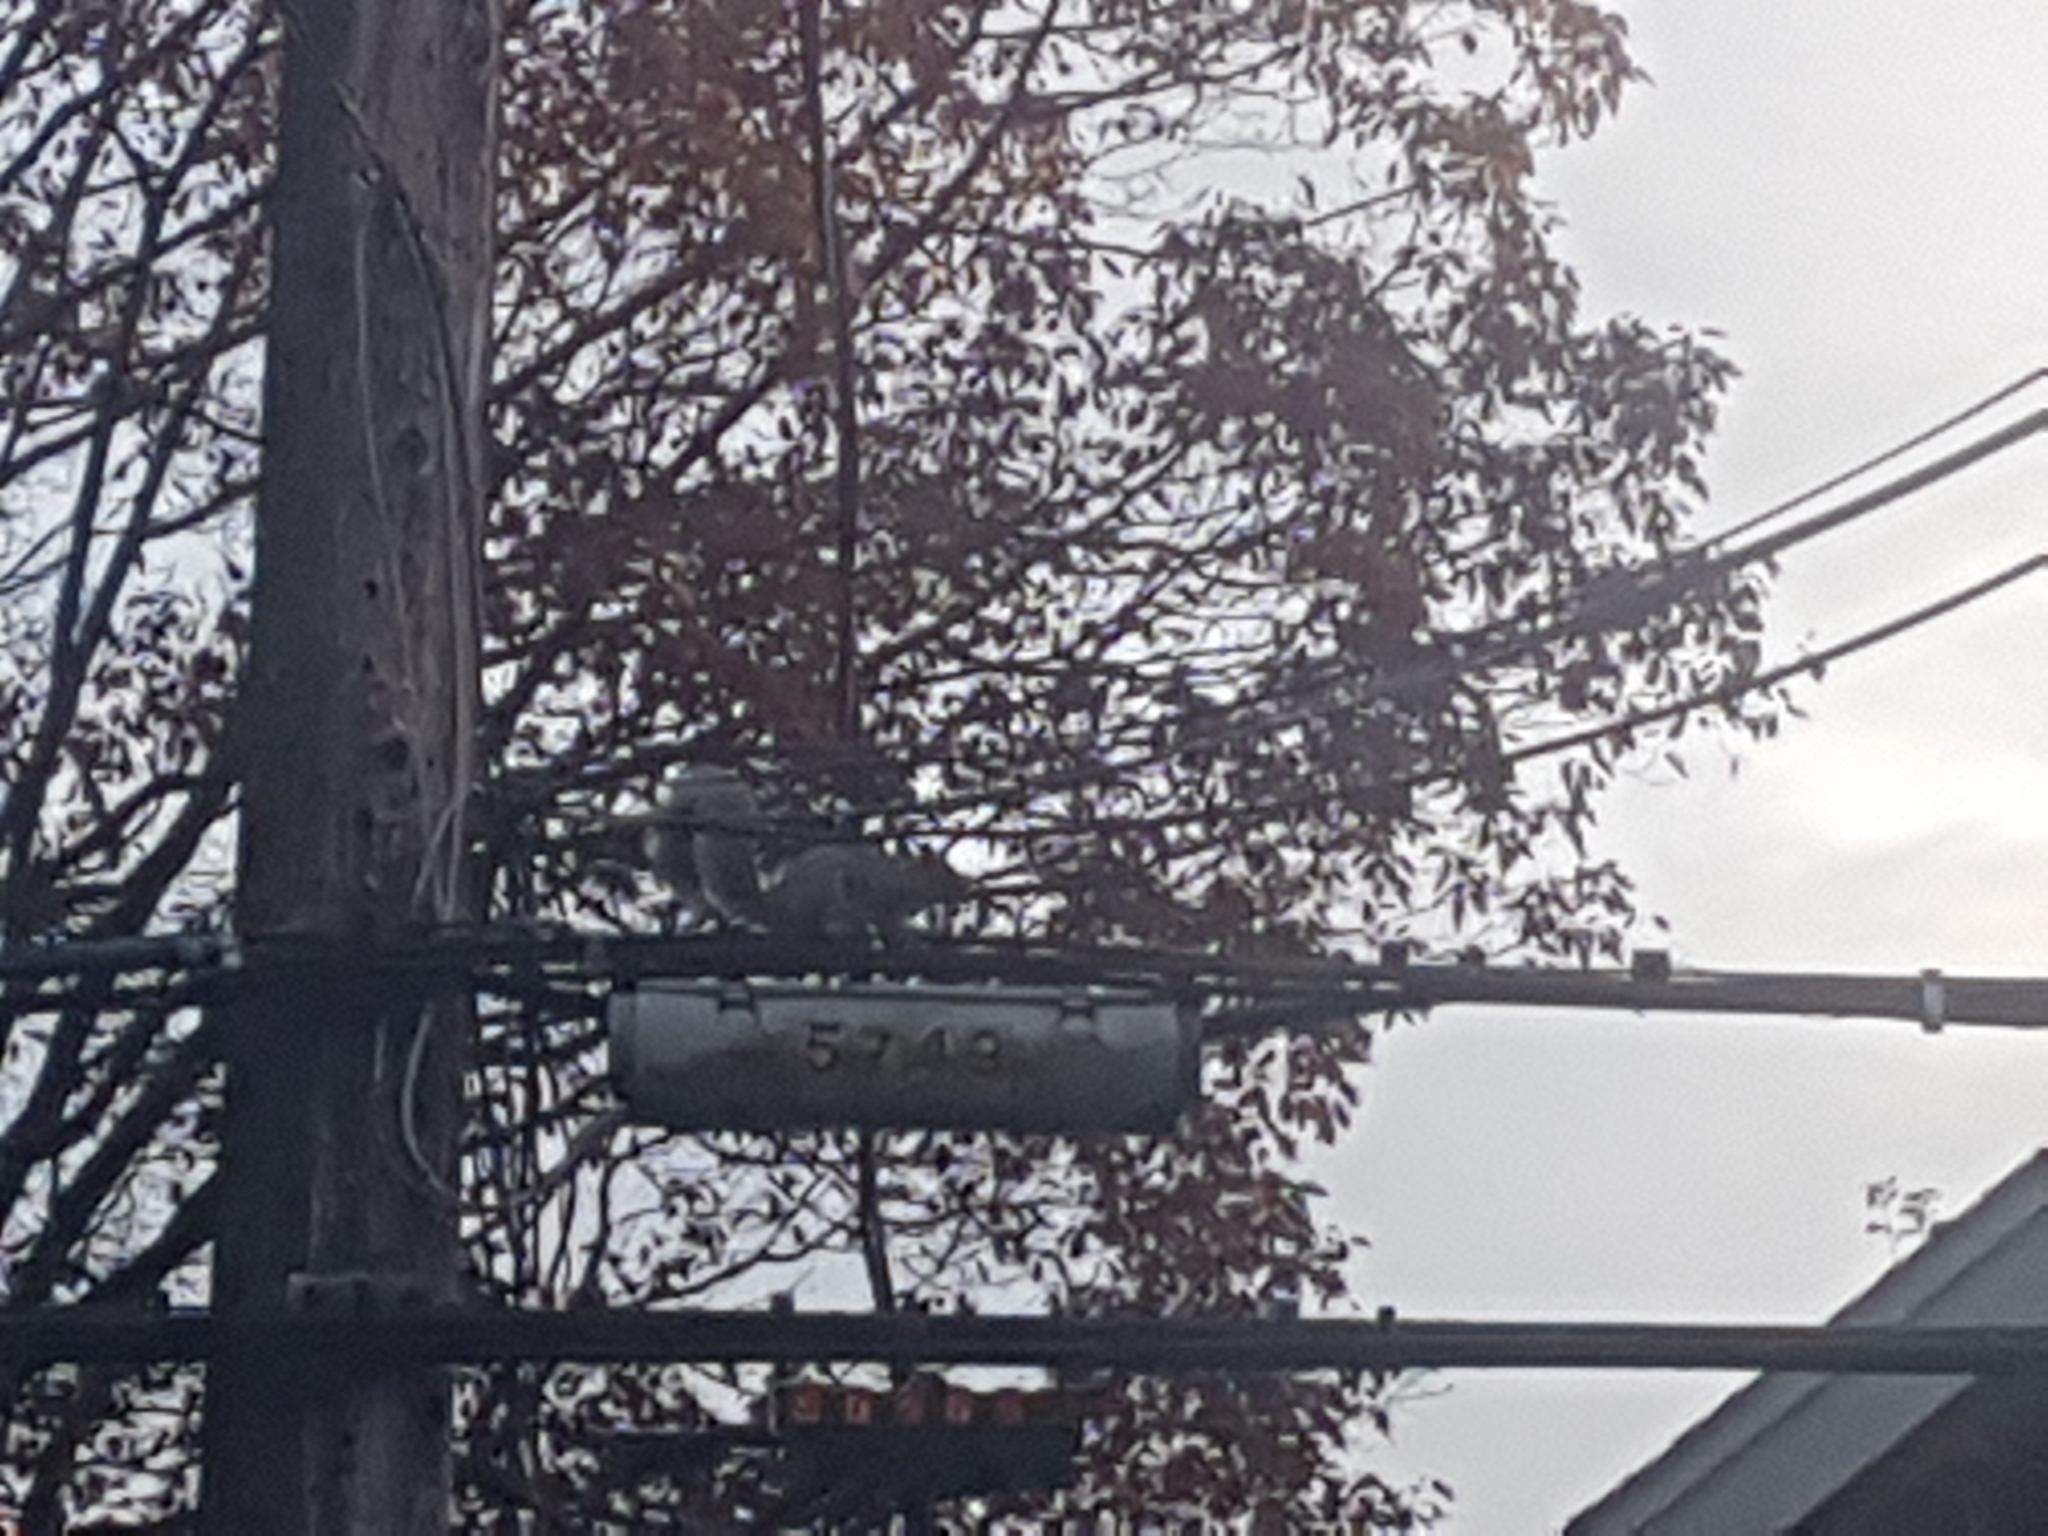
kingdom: Animalia
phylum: Chordata
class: Mammalia
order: Rodentia
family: Sciuridae
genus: Sciurus
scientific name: Sciurus carolinensis
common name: Eastern gray squirrel
